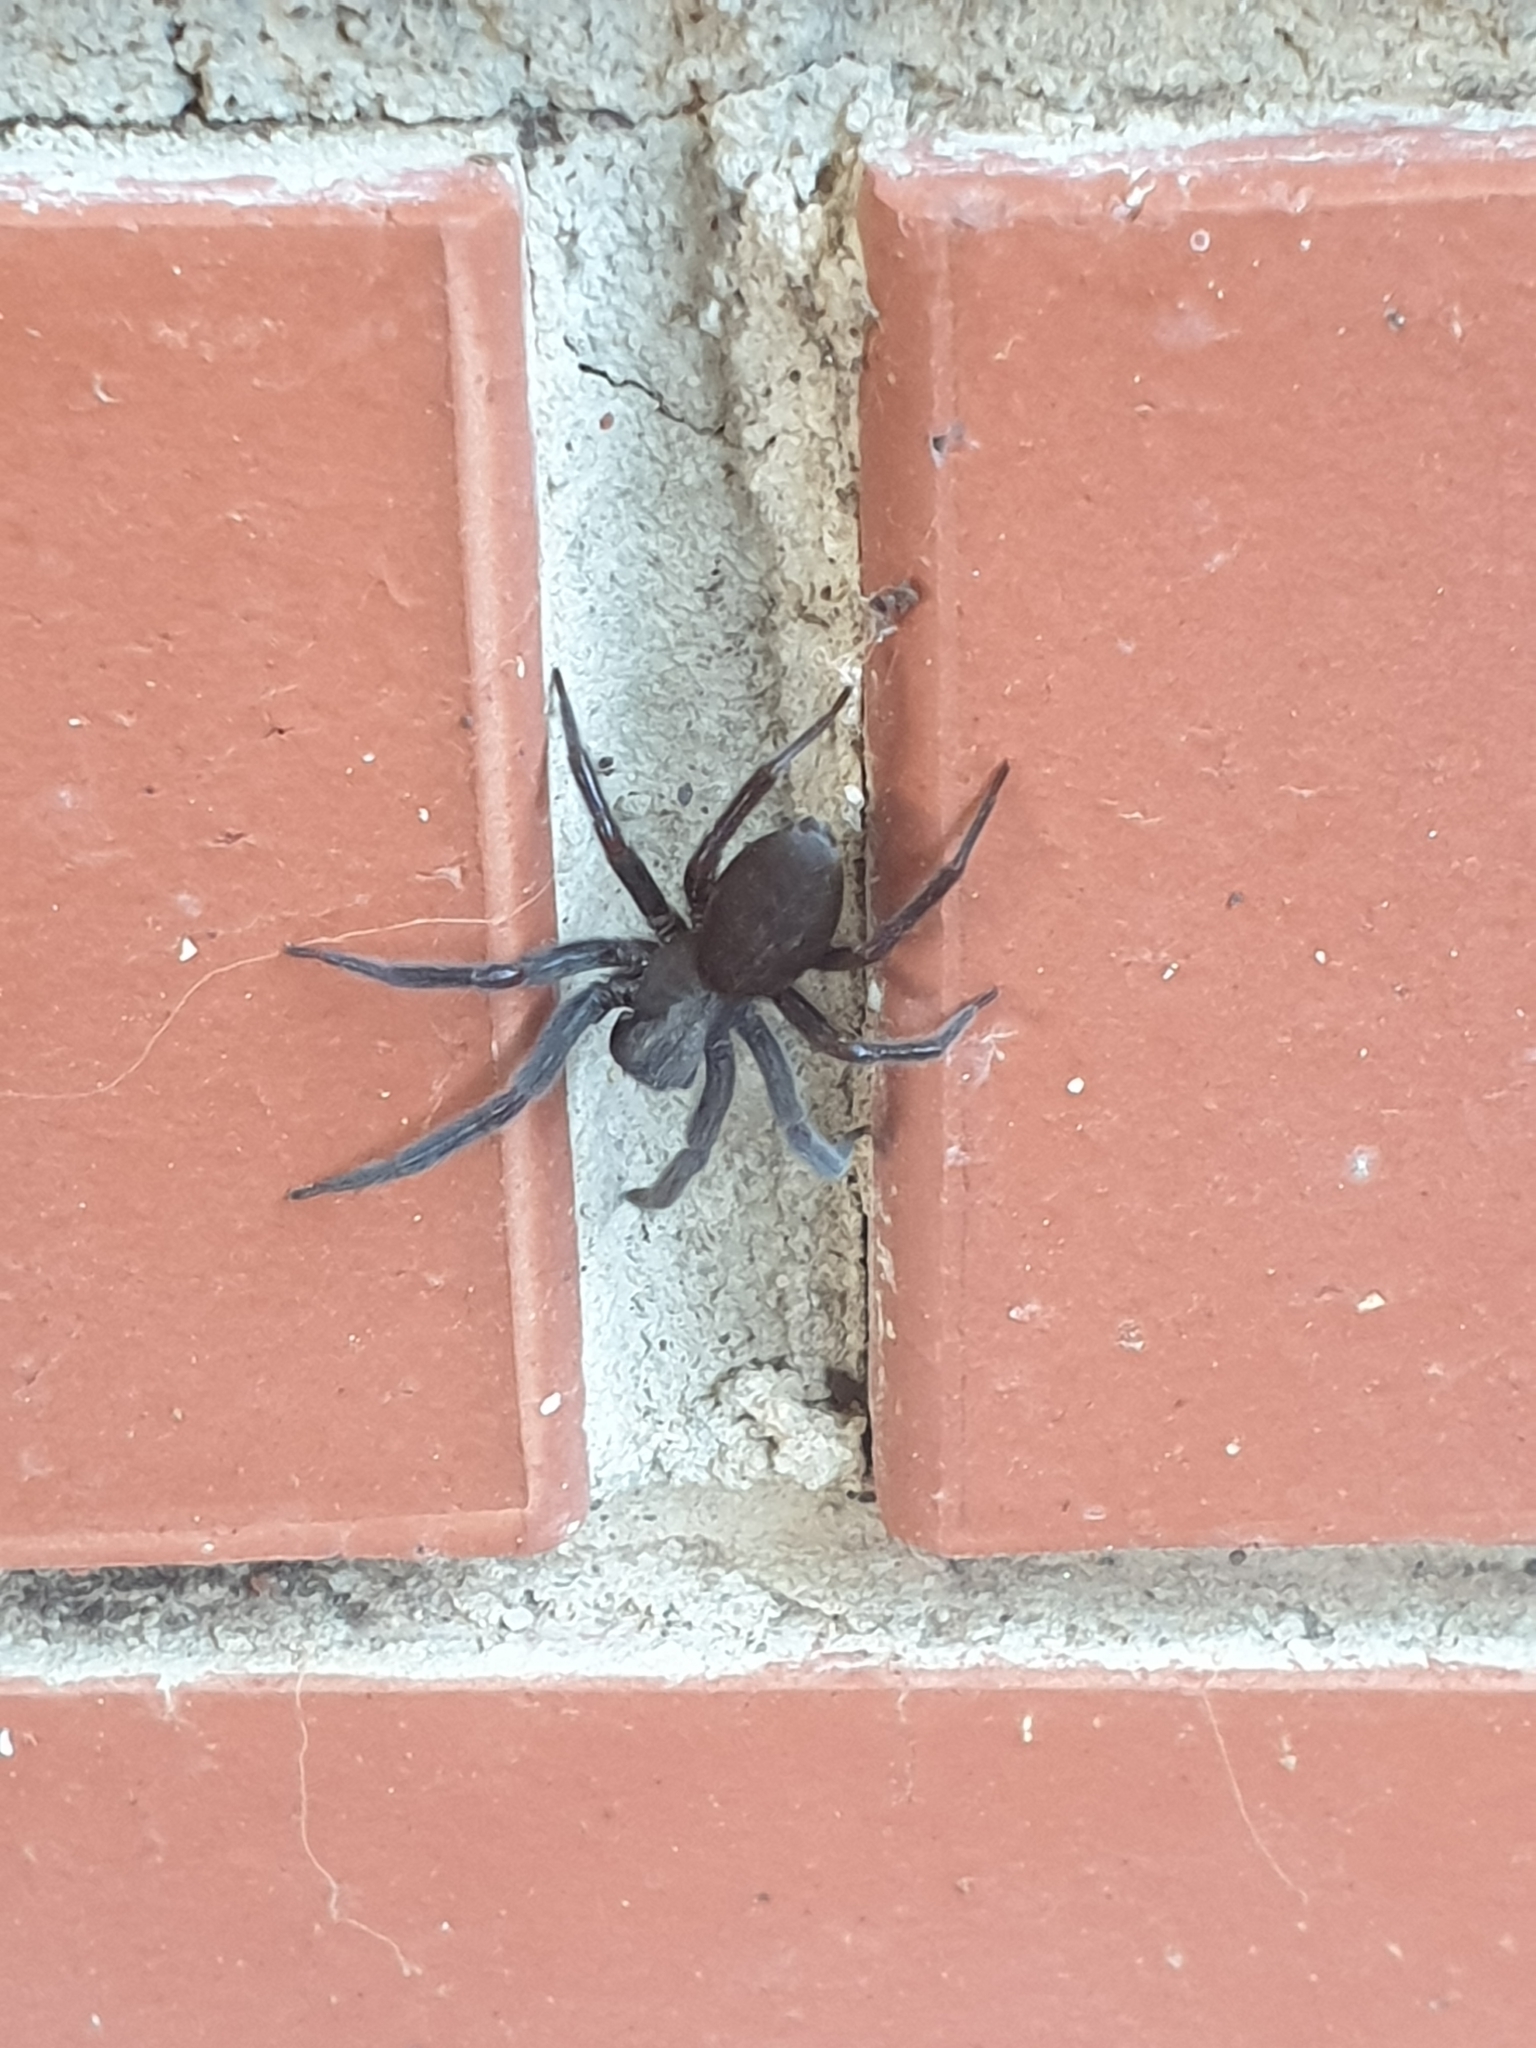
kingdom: Animalia
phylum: Arthropoda
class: Arachnida
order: Araneae
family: Desidae
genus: Badumna
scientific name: Badumna insignis
